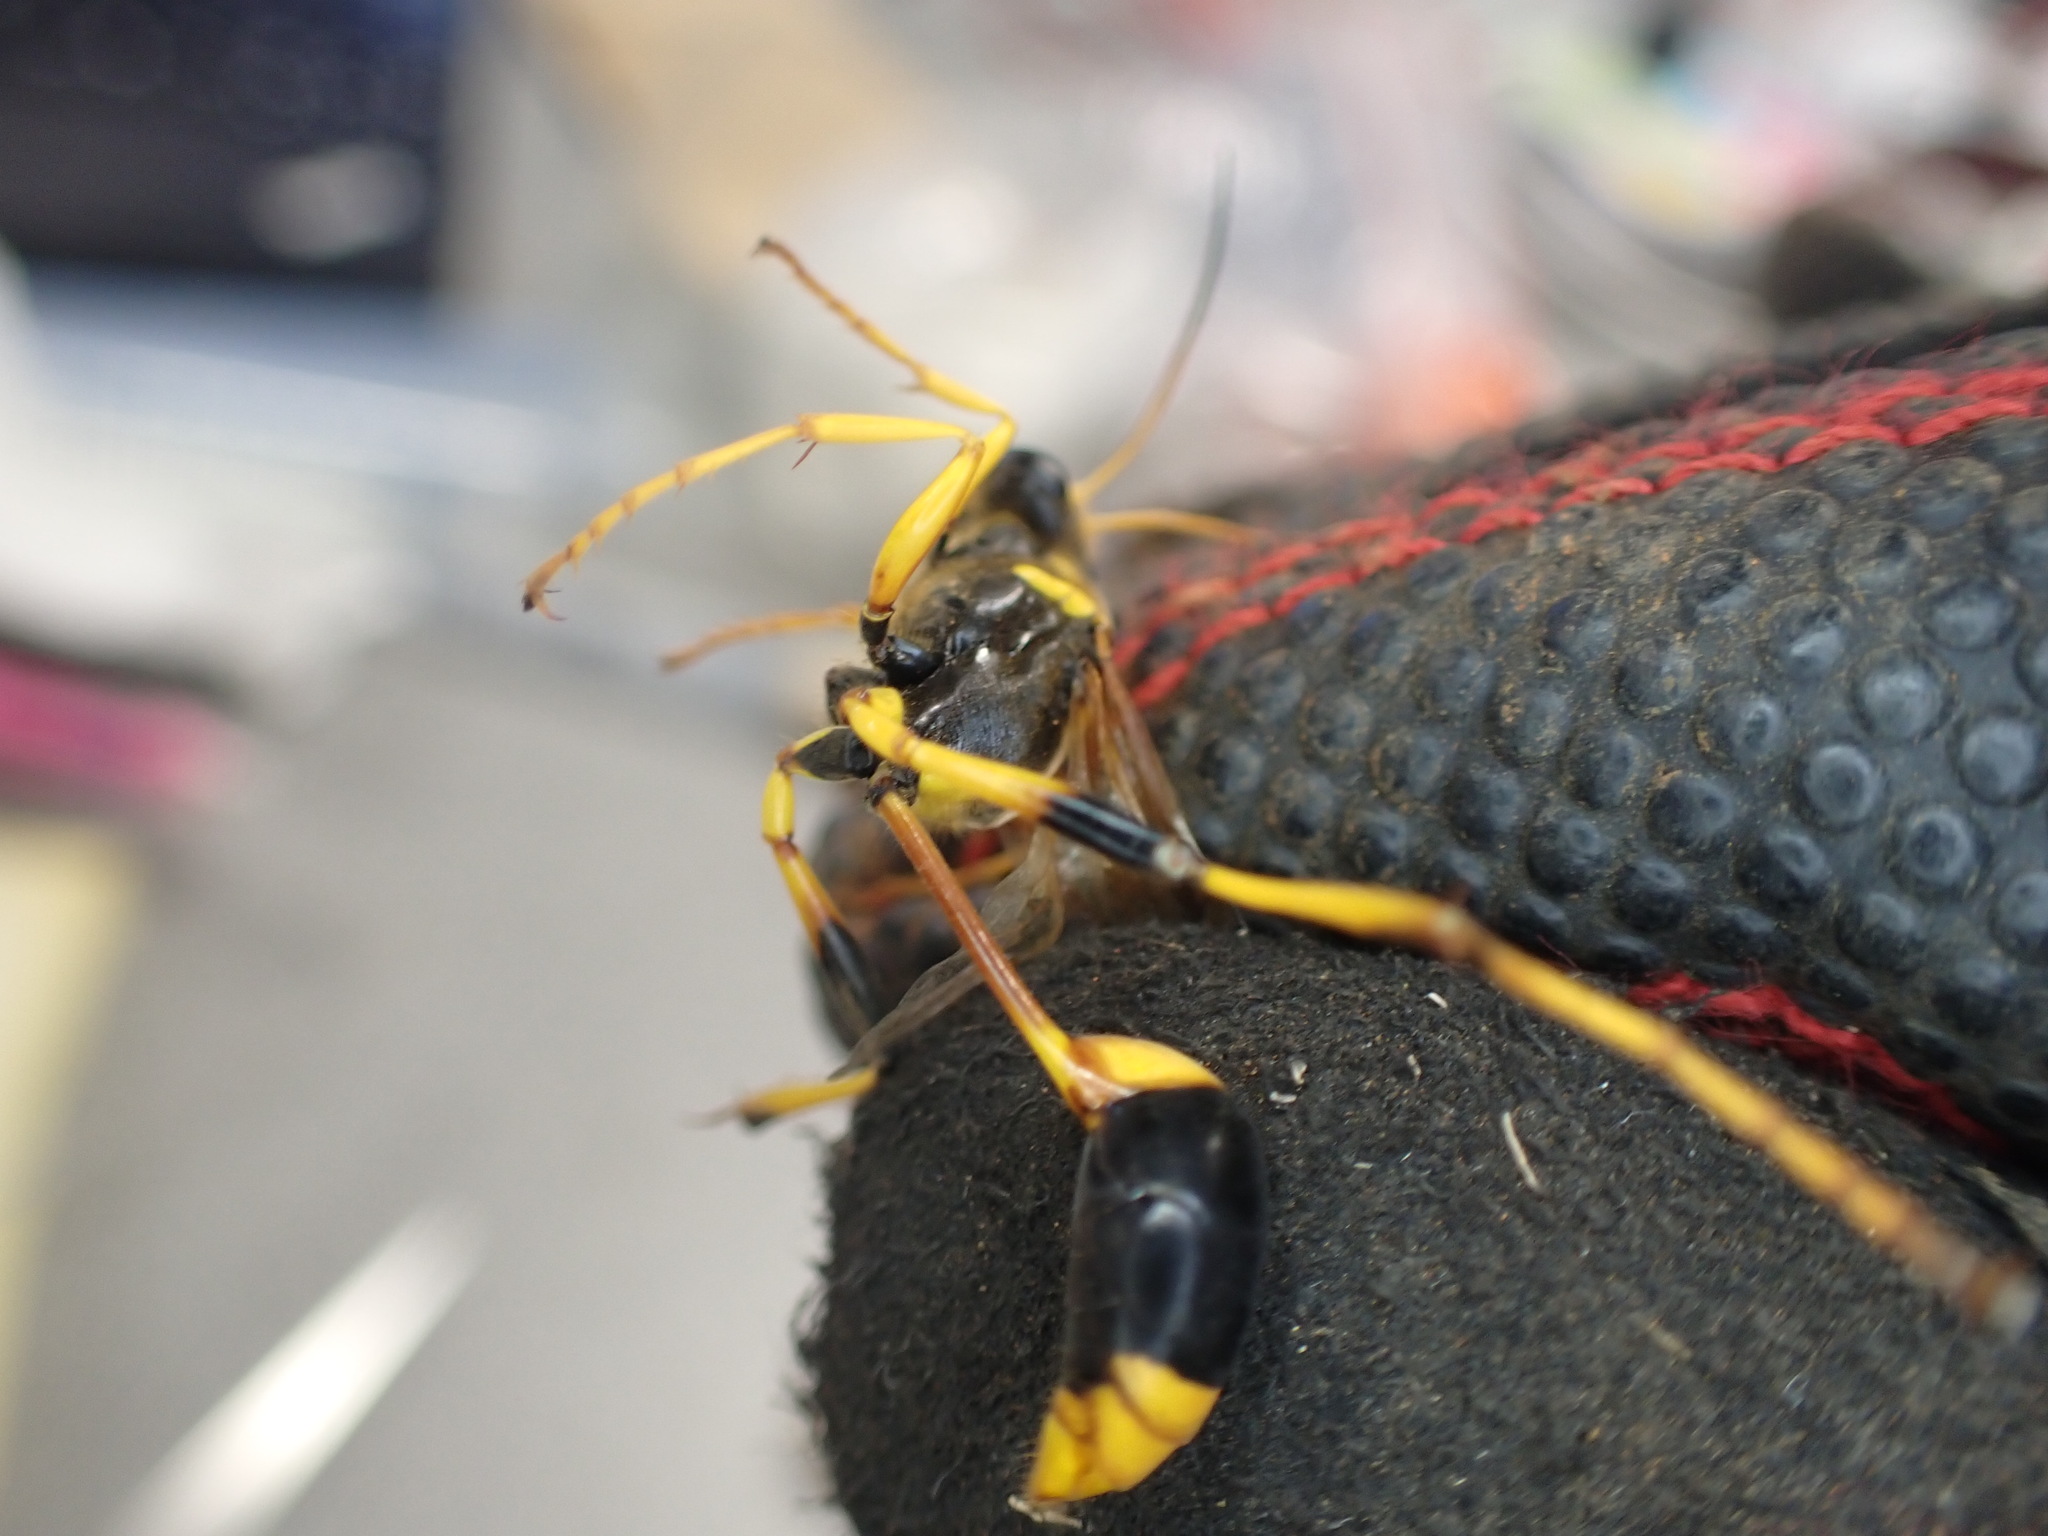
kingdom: Animalia
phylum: Arthropoda
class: Insecta
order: Hymenoptera
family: Sphecidae
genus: Sceliphron
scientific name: Sceliphron laetum
